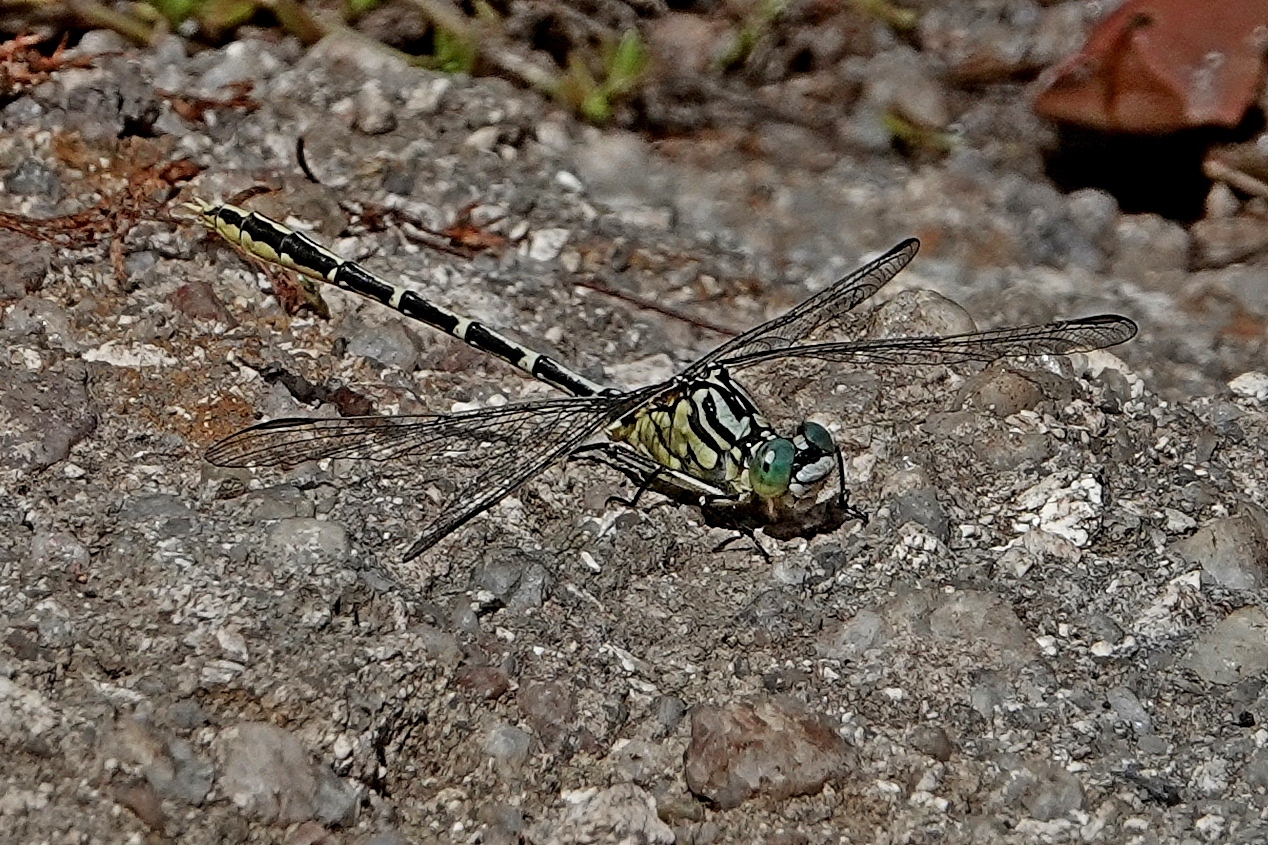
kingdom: Animalia
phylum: Arthropoda
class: Insecta
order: Odonata
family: Gomphidae
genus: Austrogomphus
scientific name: Austrogomphus guerini
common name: Yellow-striped hunter
